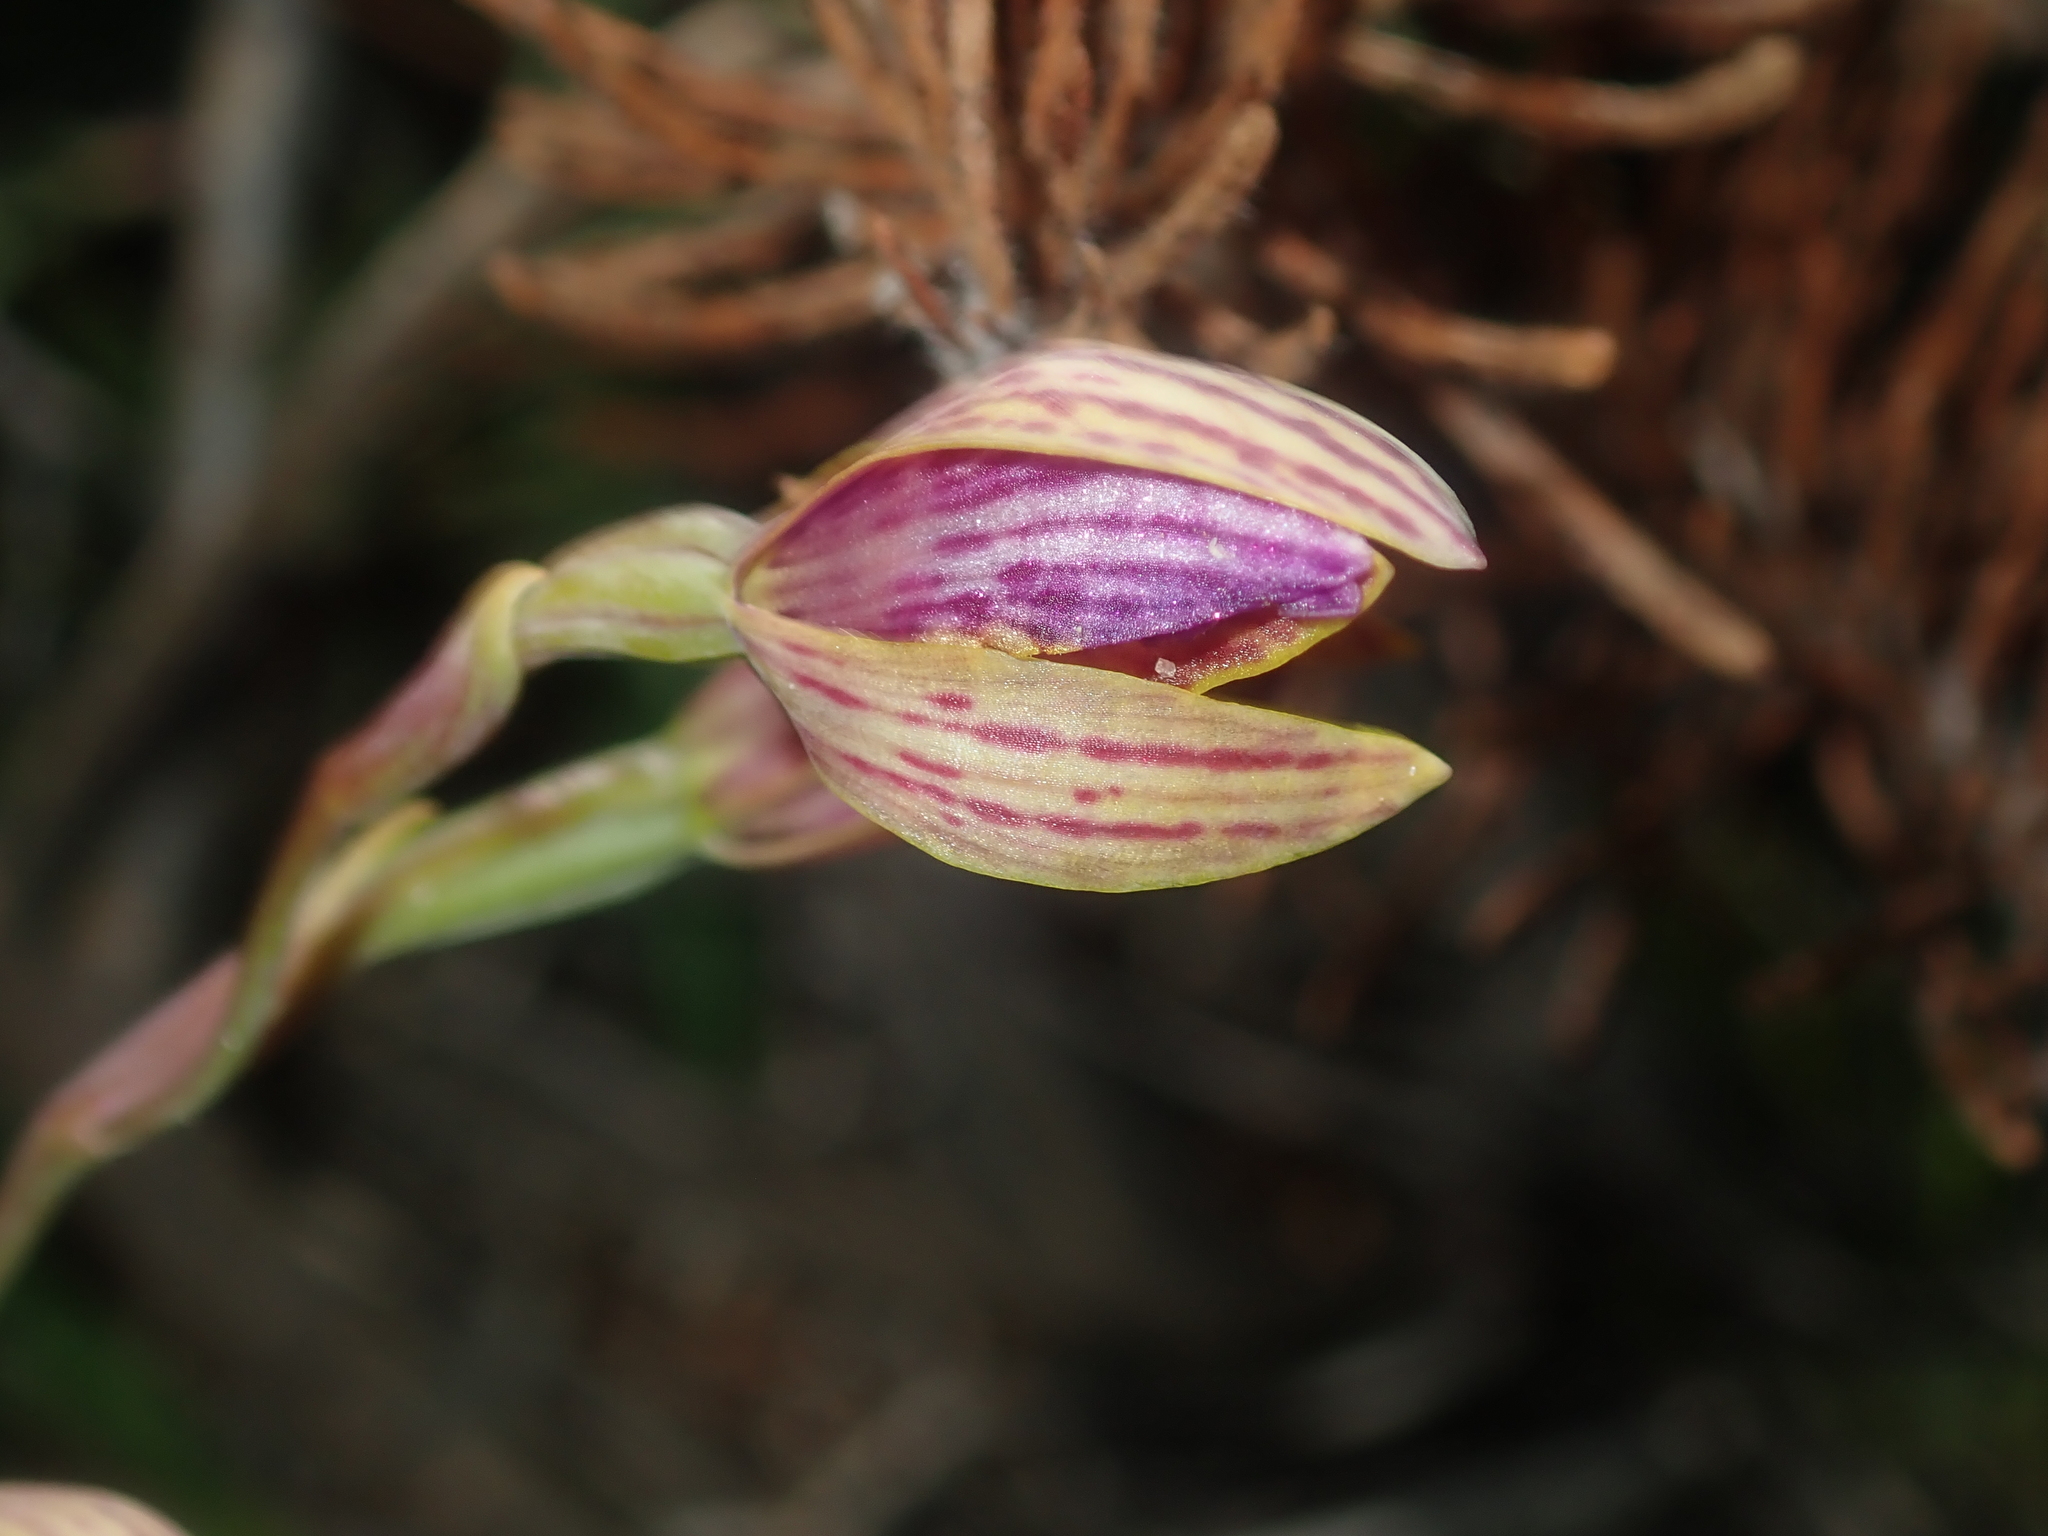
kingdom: Plantae
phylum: Tracheophyta
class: Liliopsida
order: Asparagales
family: Orchidaceae
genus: Thelymitra
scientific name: Thelymitra pulcherrima
